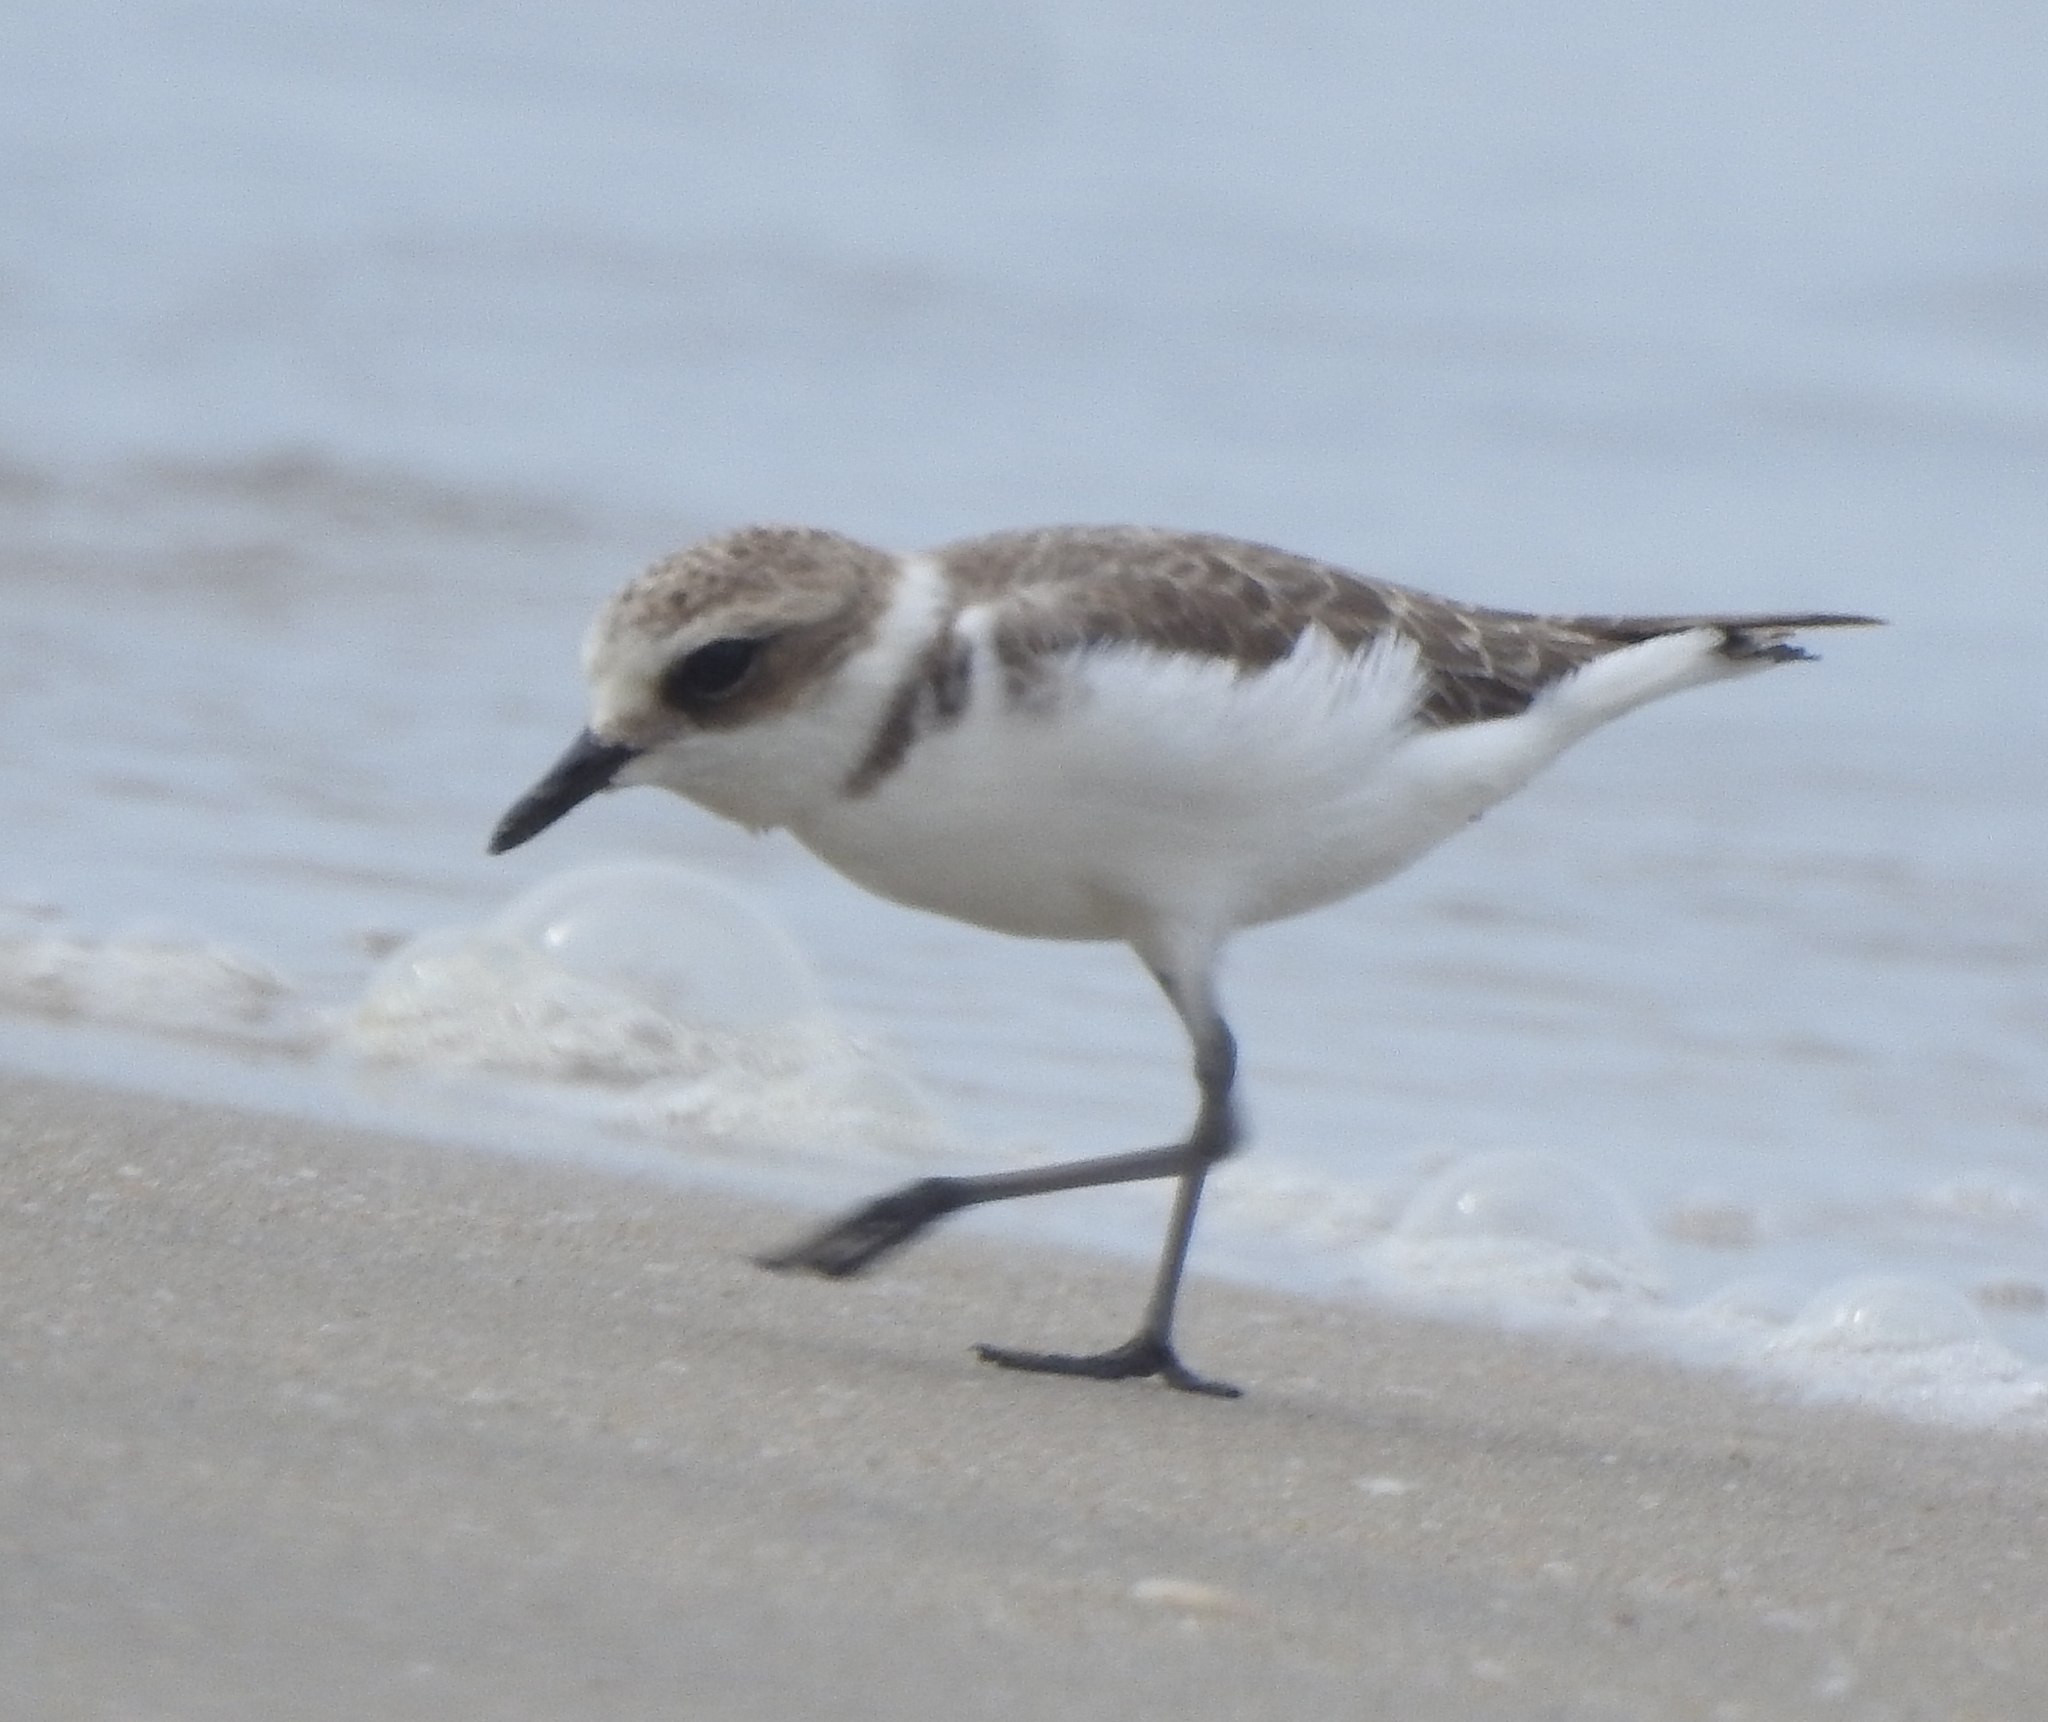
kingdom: Animalia
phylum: Chordata
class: Aves
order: Charadriiformes
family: Charadriidae
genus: Charadrius
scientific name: Charadrius alexandrinus
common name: Kentish plover
